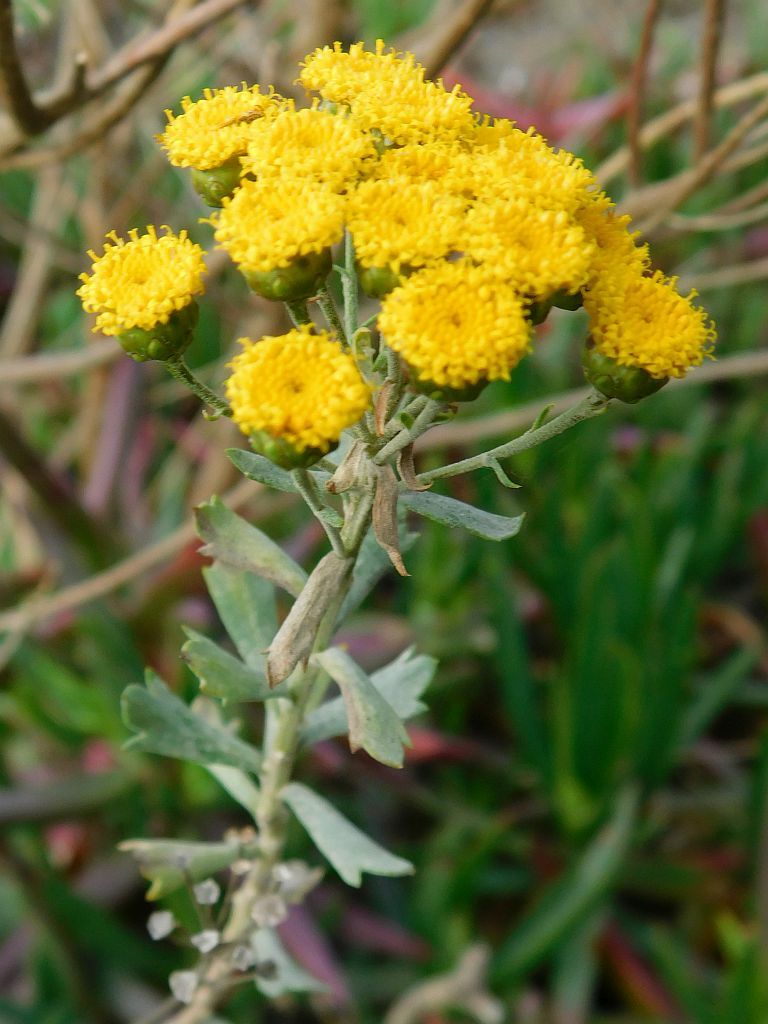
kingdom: Plantae
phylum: Tracheophyta
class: Magnoliopsida
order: Asterales
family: Asteraceae
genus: Athanasia
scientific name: Athanasia trifurcata
